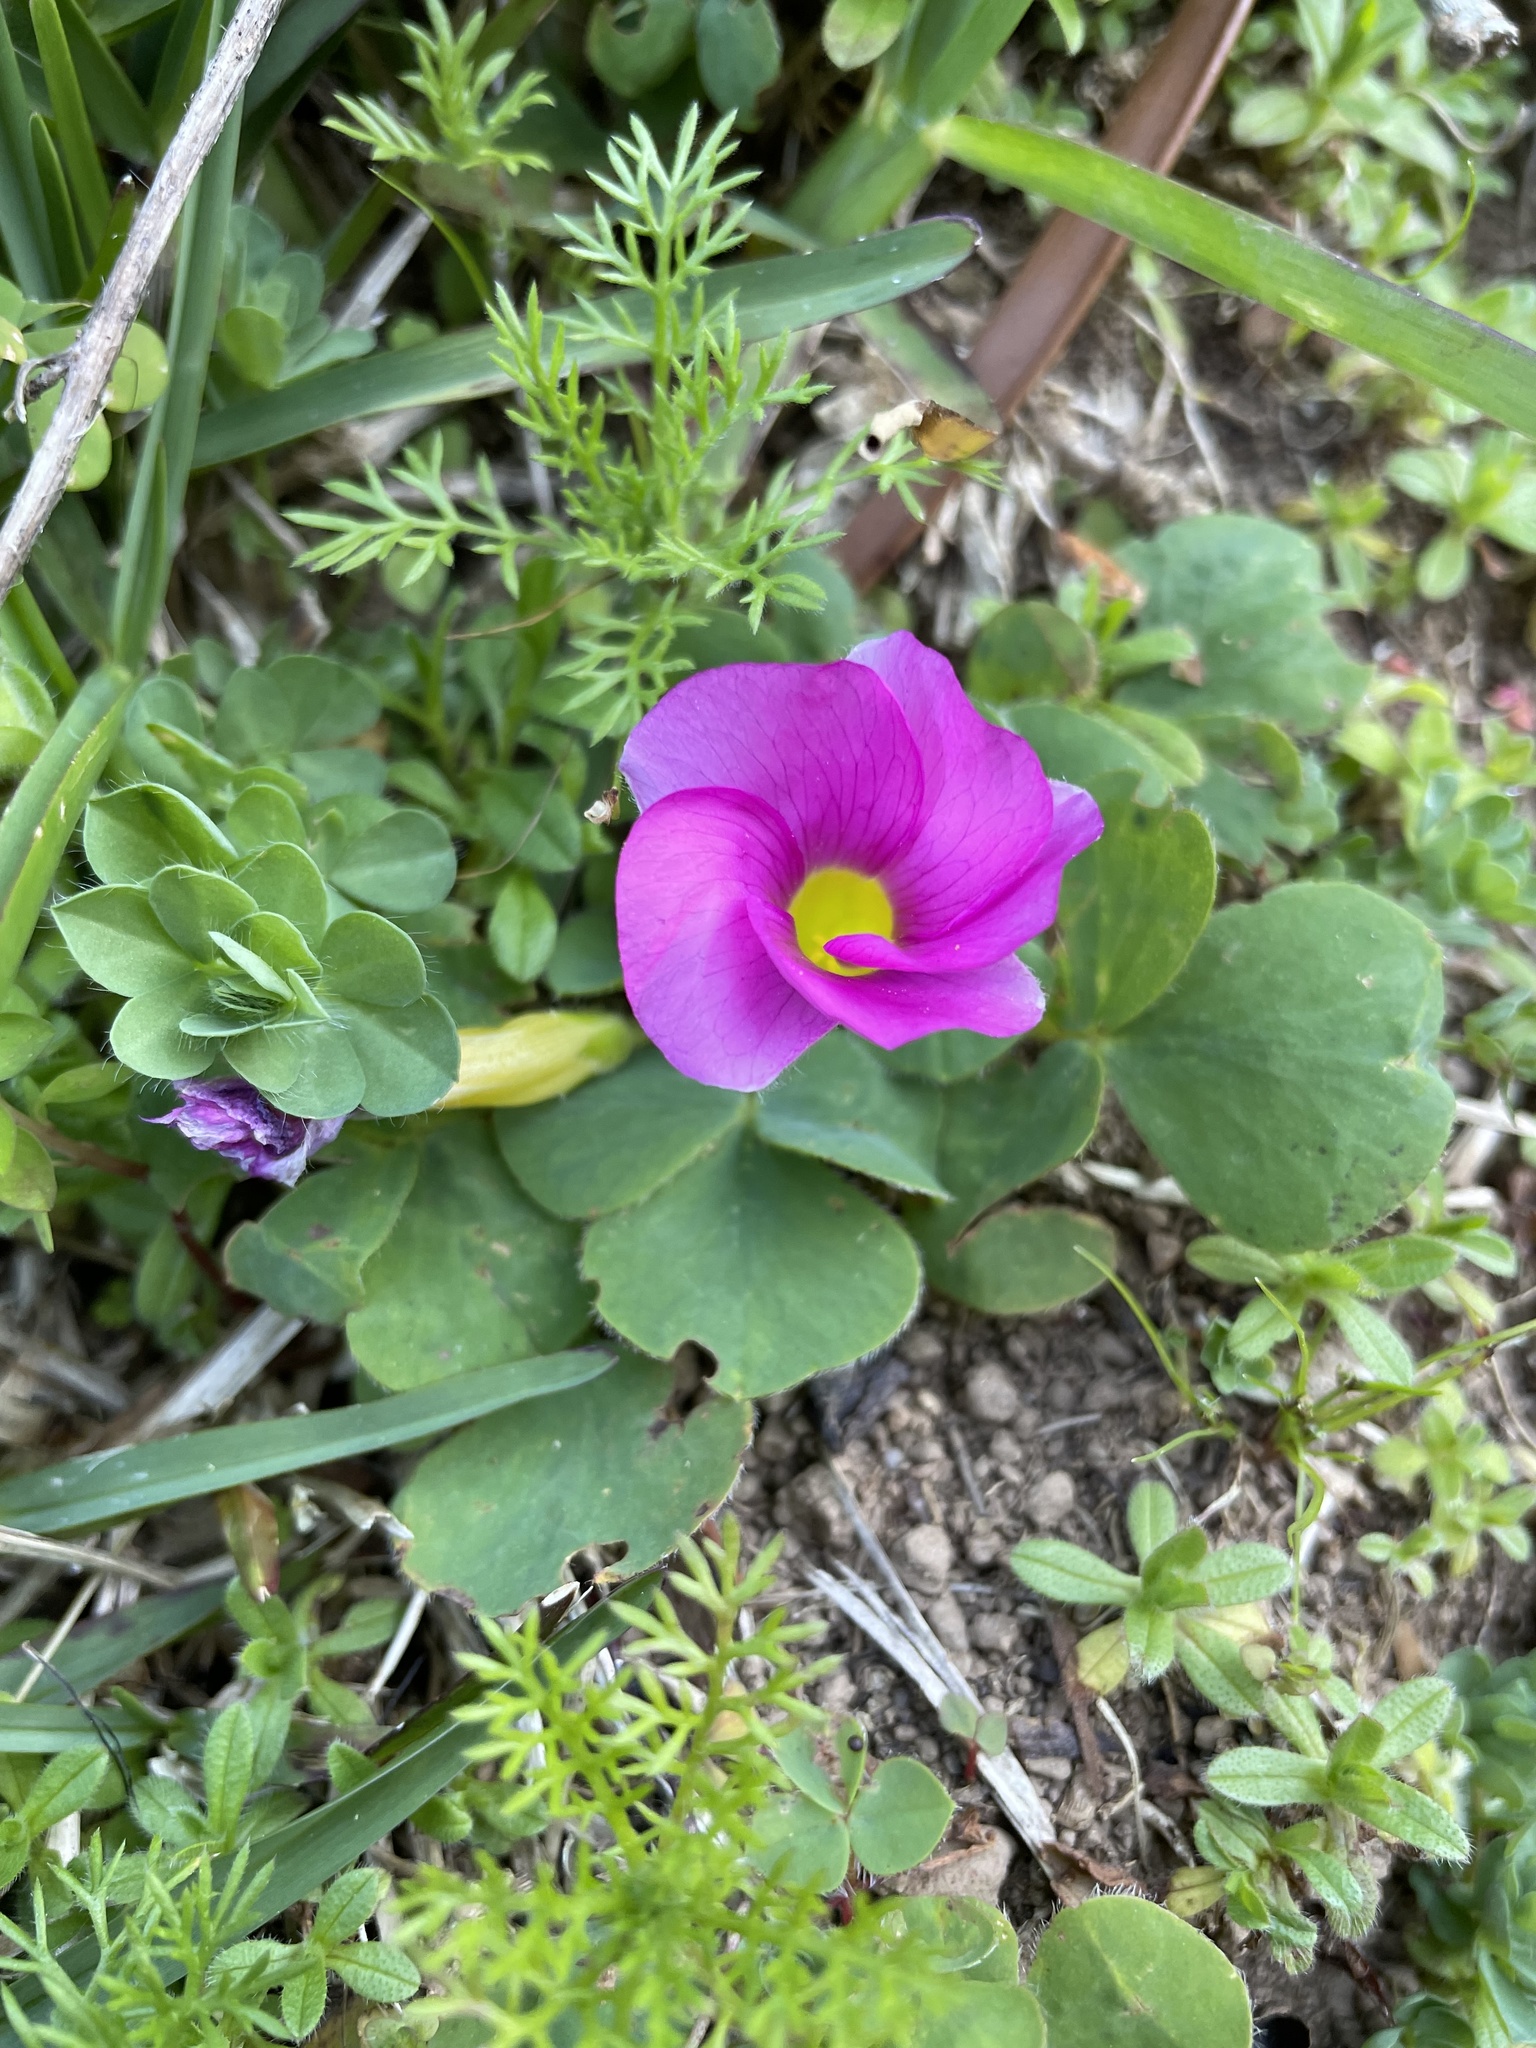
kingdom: Plantae
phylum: Tracheophyta
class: Magnoliopsida
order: Oxalidales
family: Oxalidaceae
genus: Oxalis
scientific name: Oxalis purpurea
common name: Purple woodsorrel
